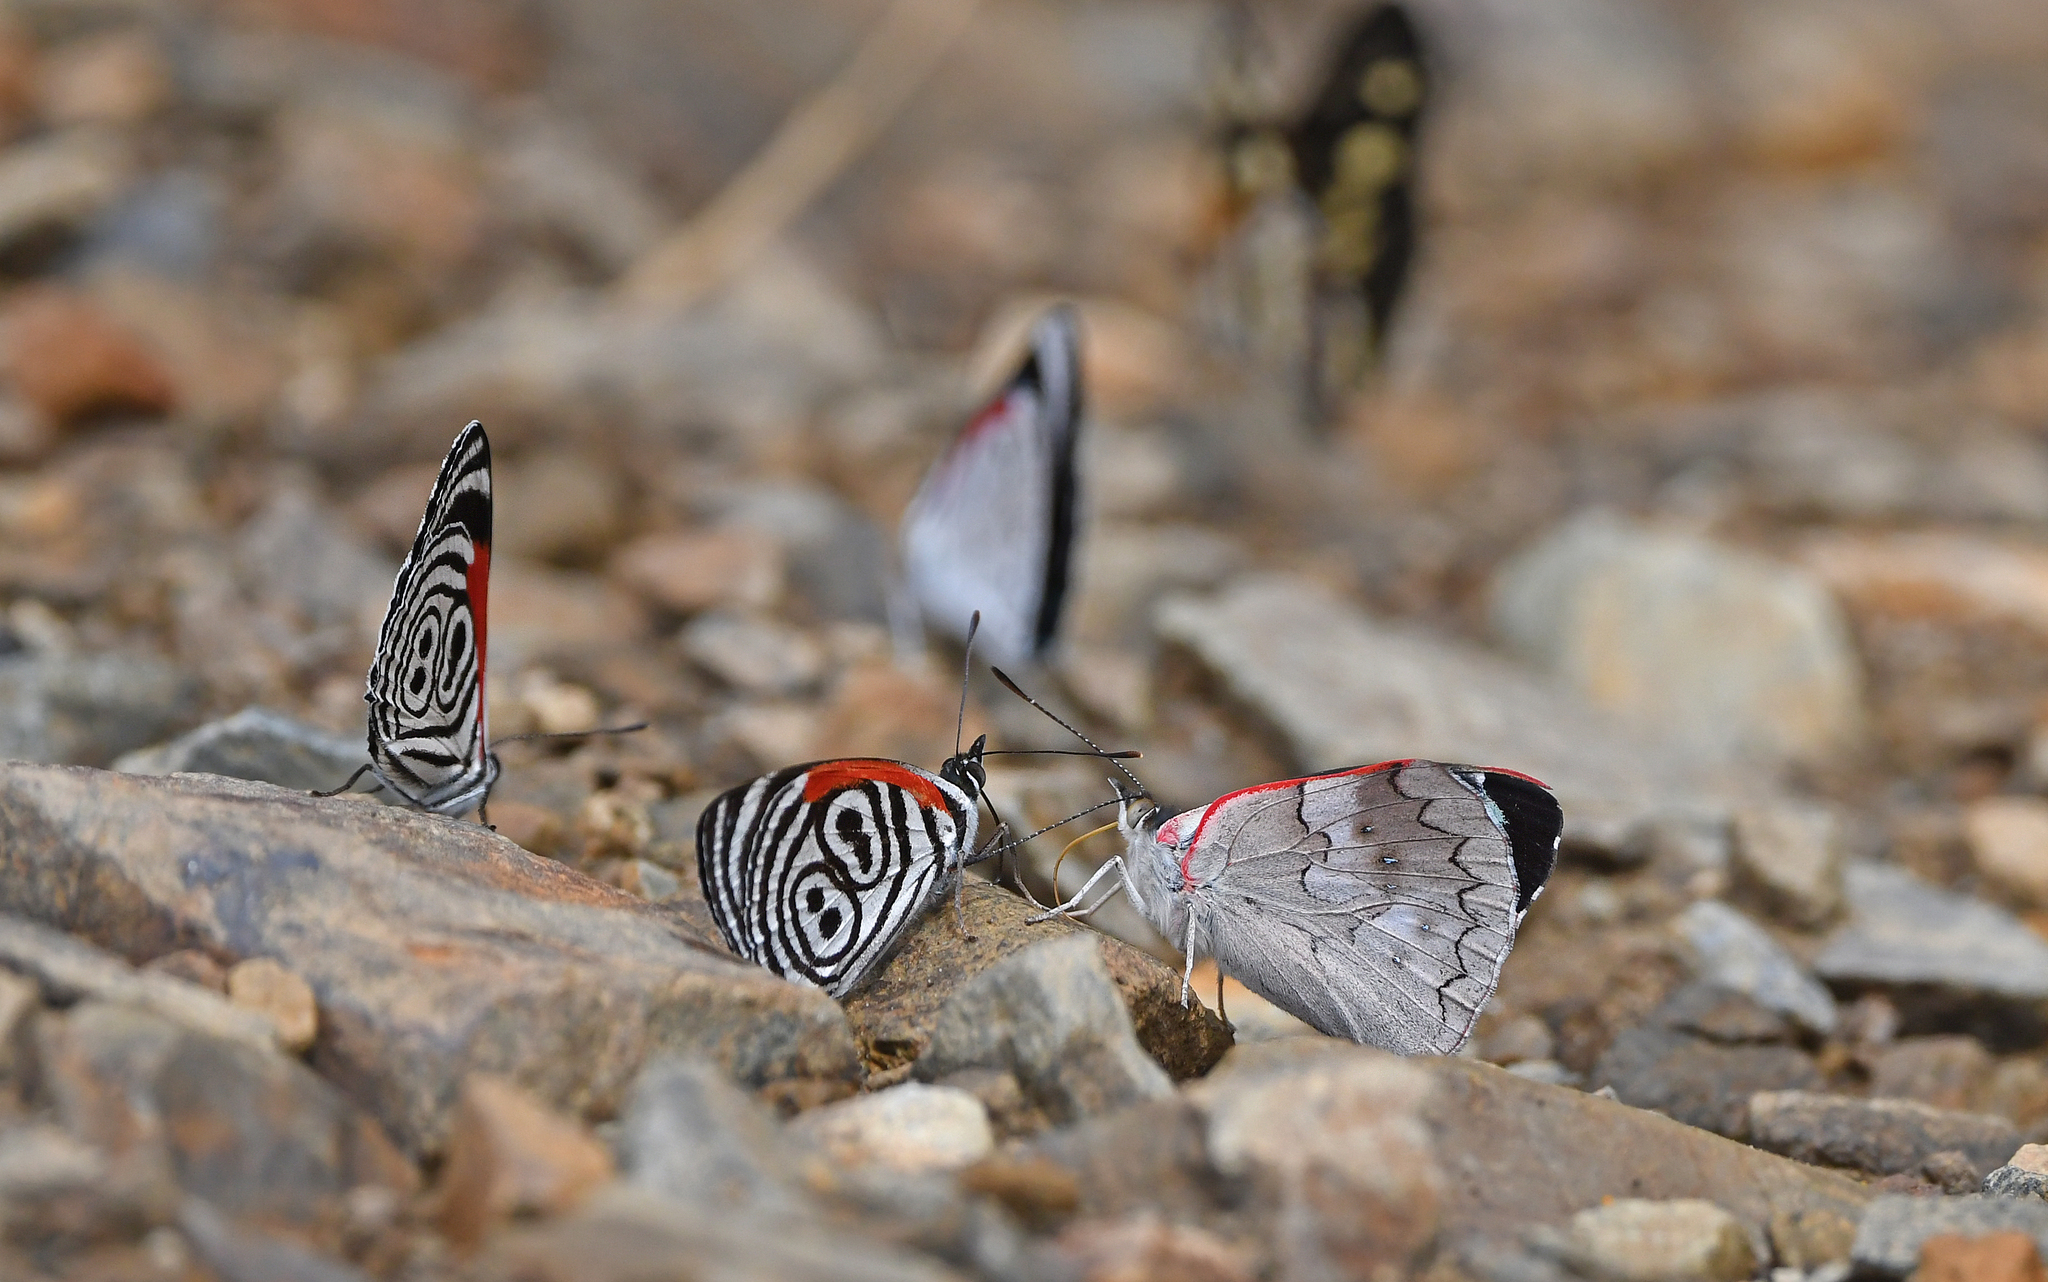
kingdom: Animalia
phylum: Arthropoda
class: Insecta
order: Lepidoptera
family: Nymphalidae
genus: Perisama
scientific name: Perisama lebasii
